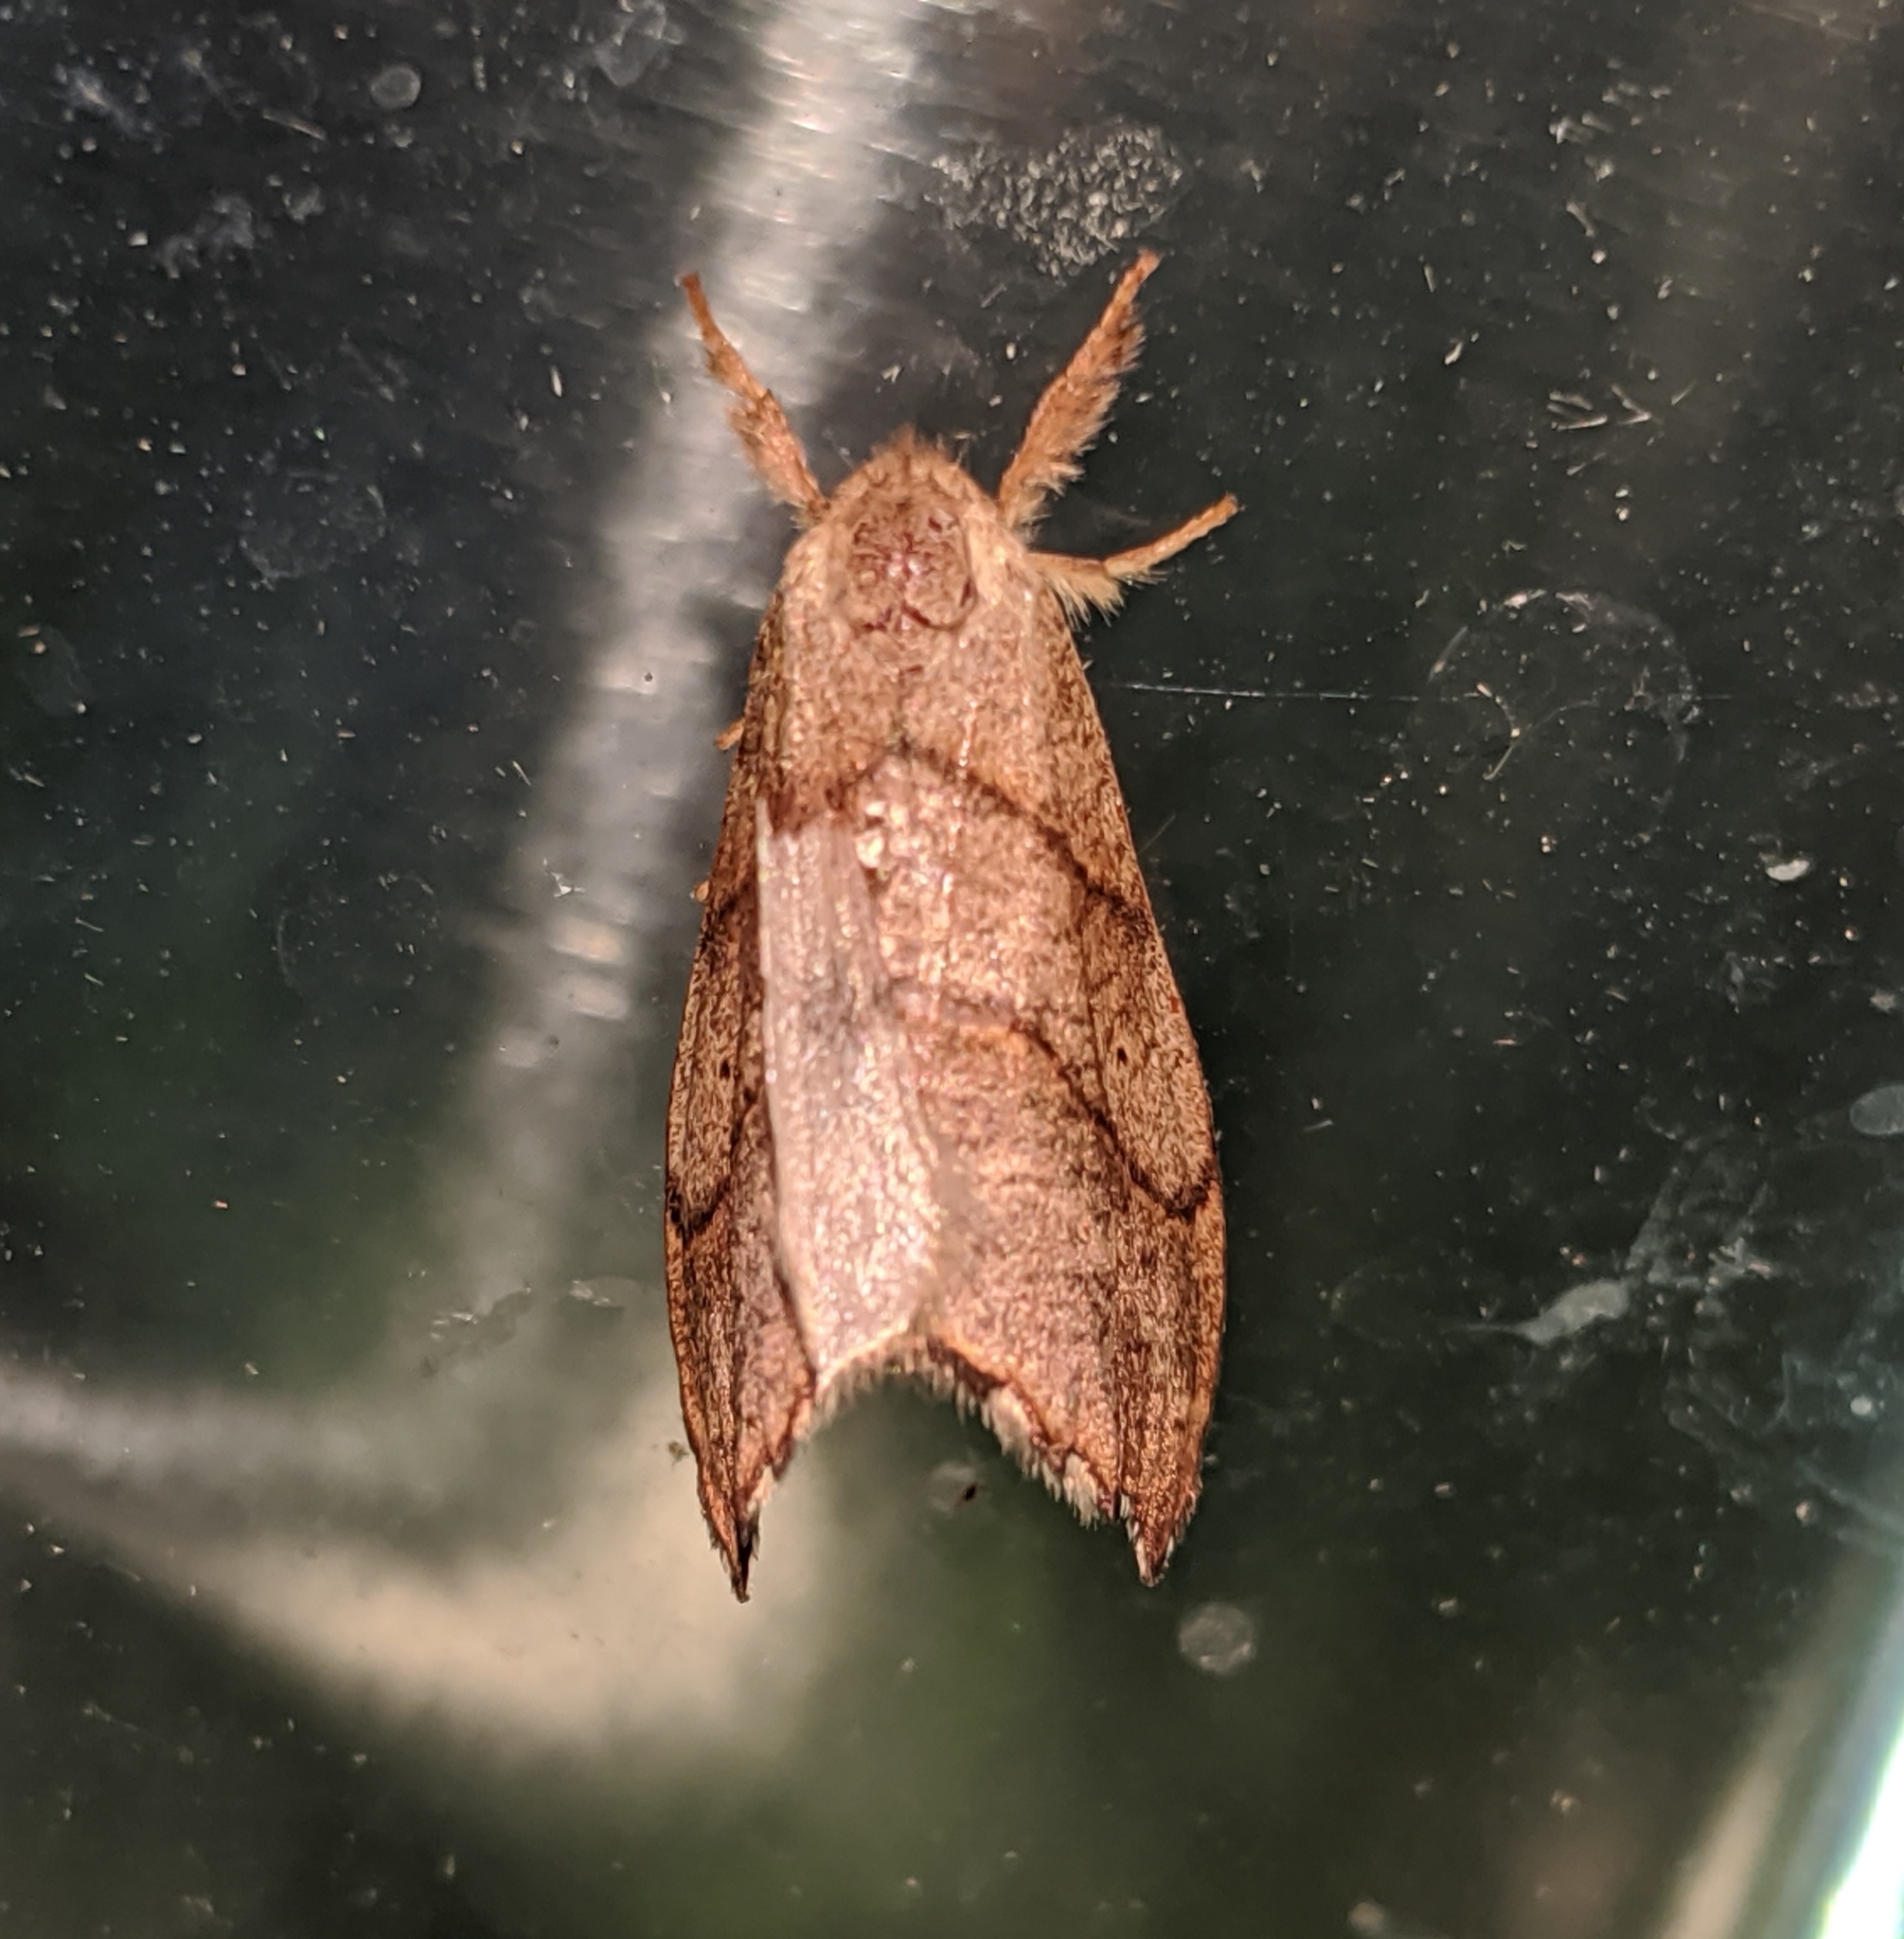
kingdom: Animalia
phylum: Arthropoda
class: Insecta
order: Lepidoptera
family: Drepanidae
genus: Falcaria
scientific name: Falcaria bilineata
